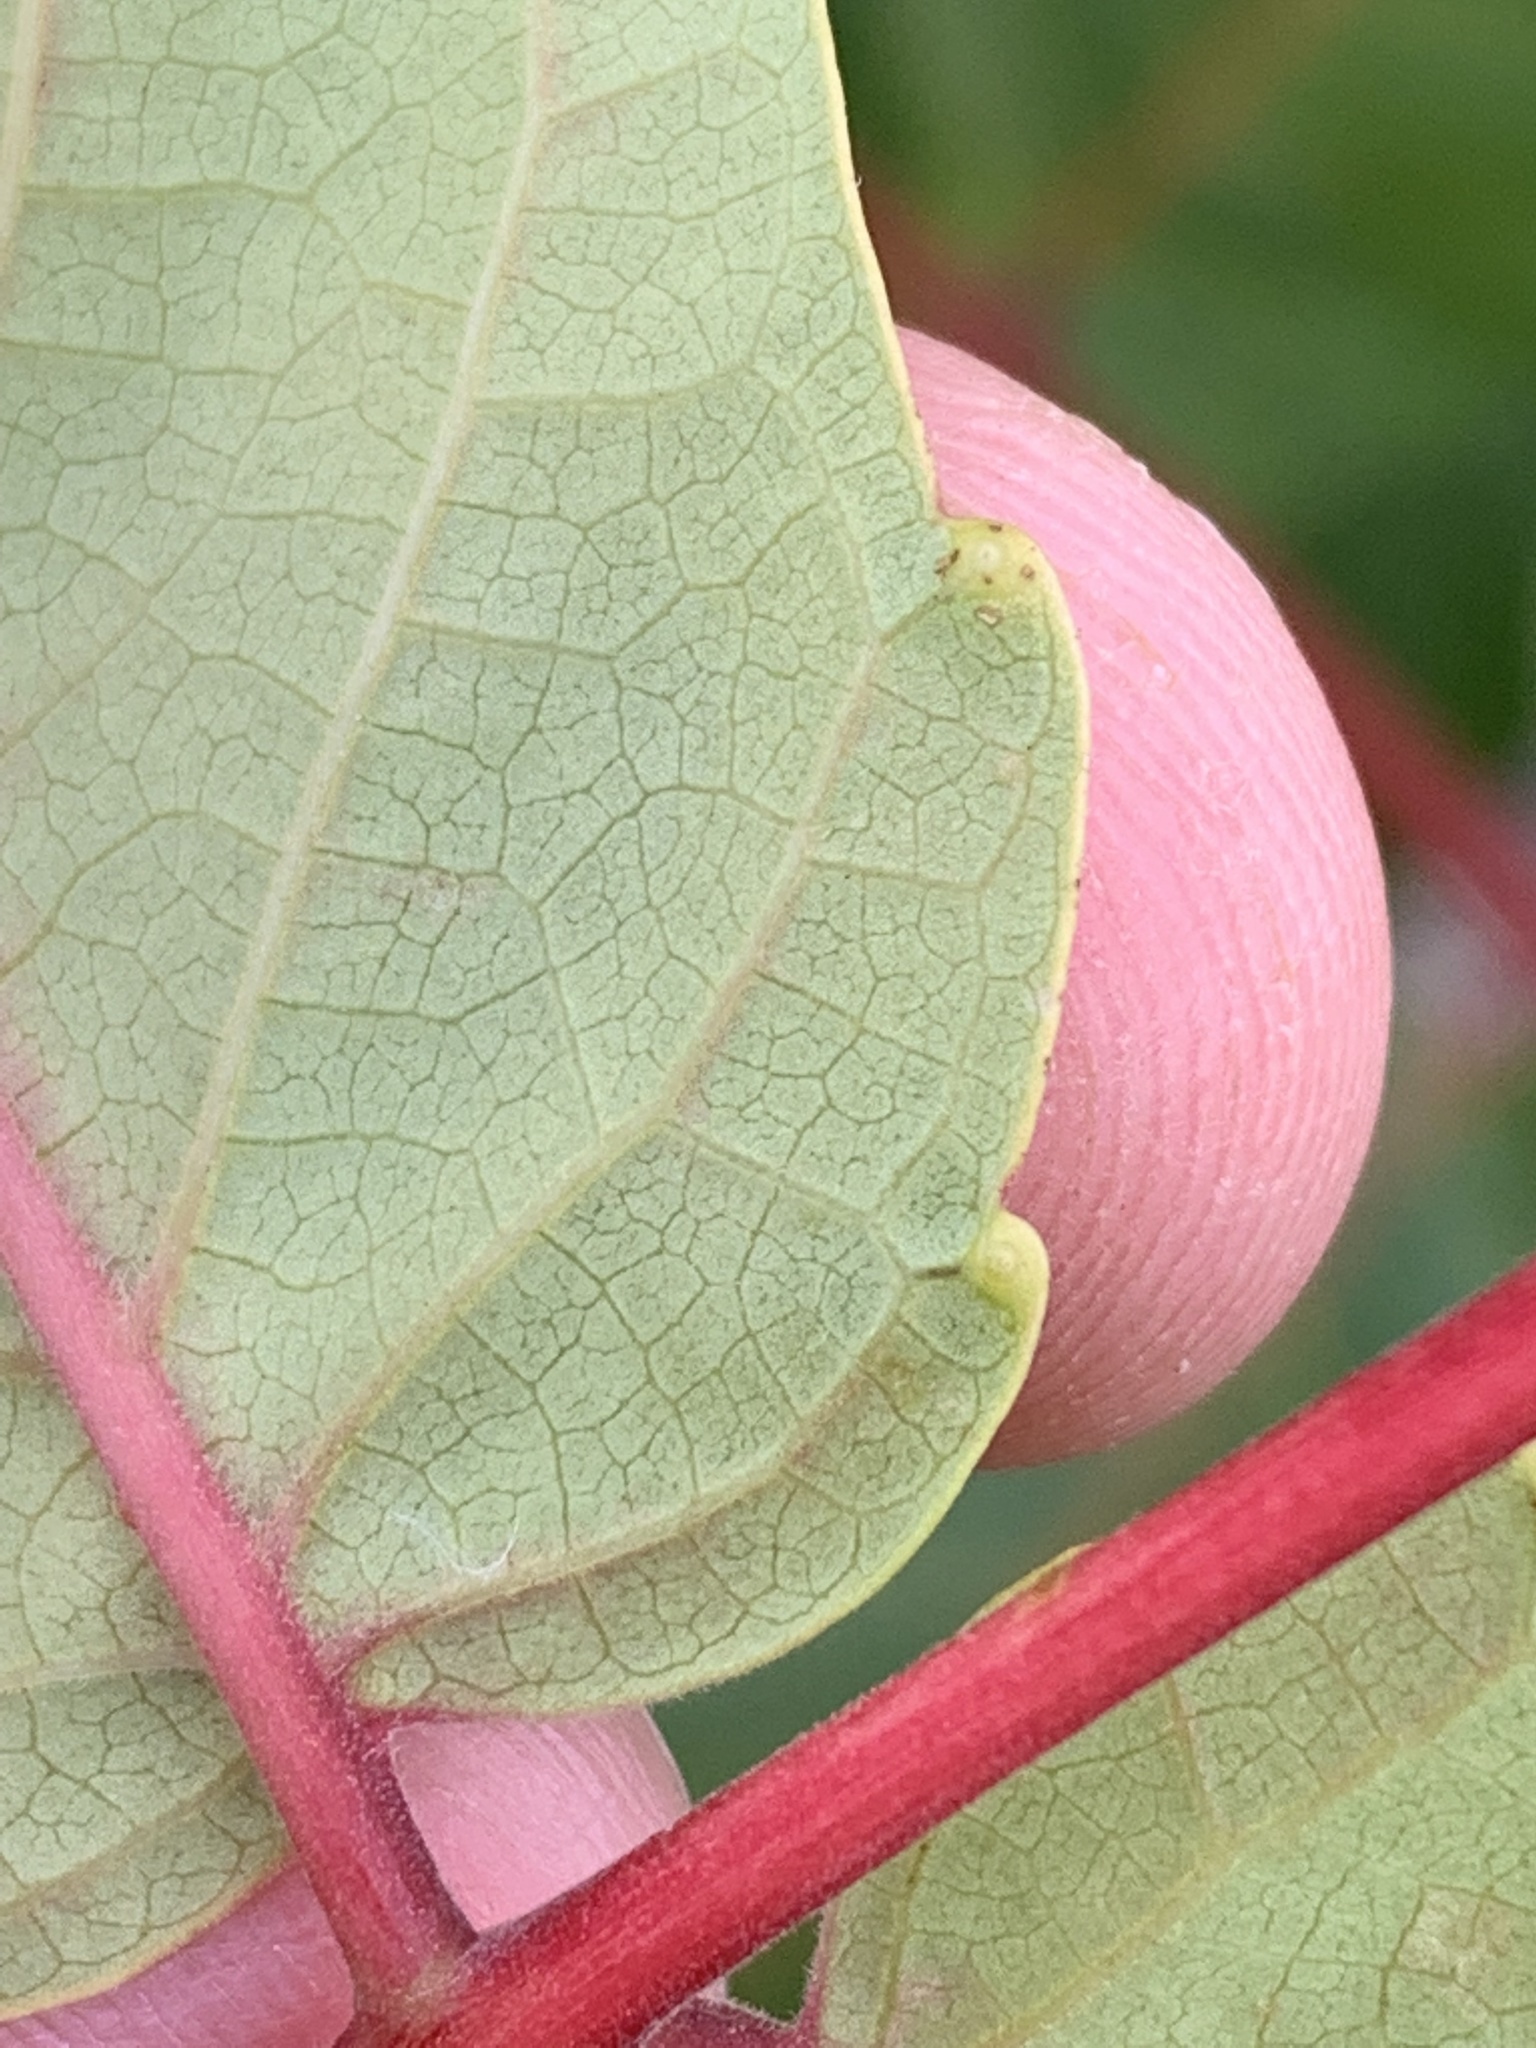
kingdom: Plantae
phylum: Tracheophyta
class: Magnoliopsida
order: Sapindales
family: Simaroubaceae
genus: Ailanthus
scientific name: Ailanthus altissima
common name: Tree-of-heaven
